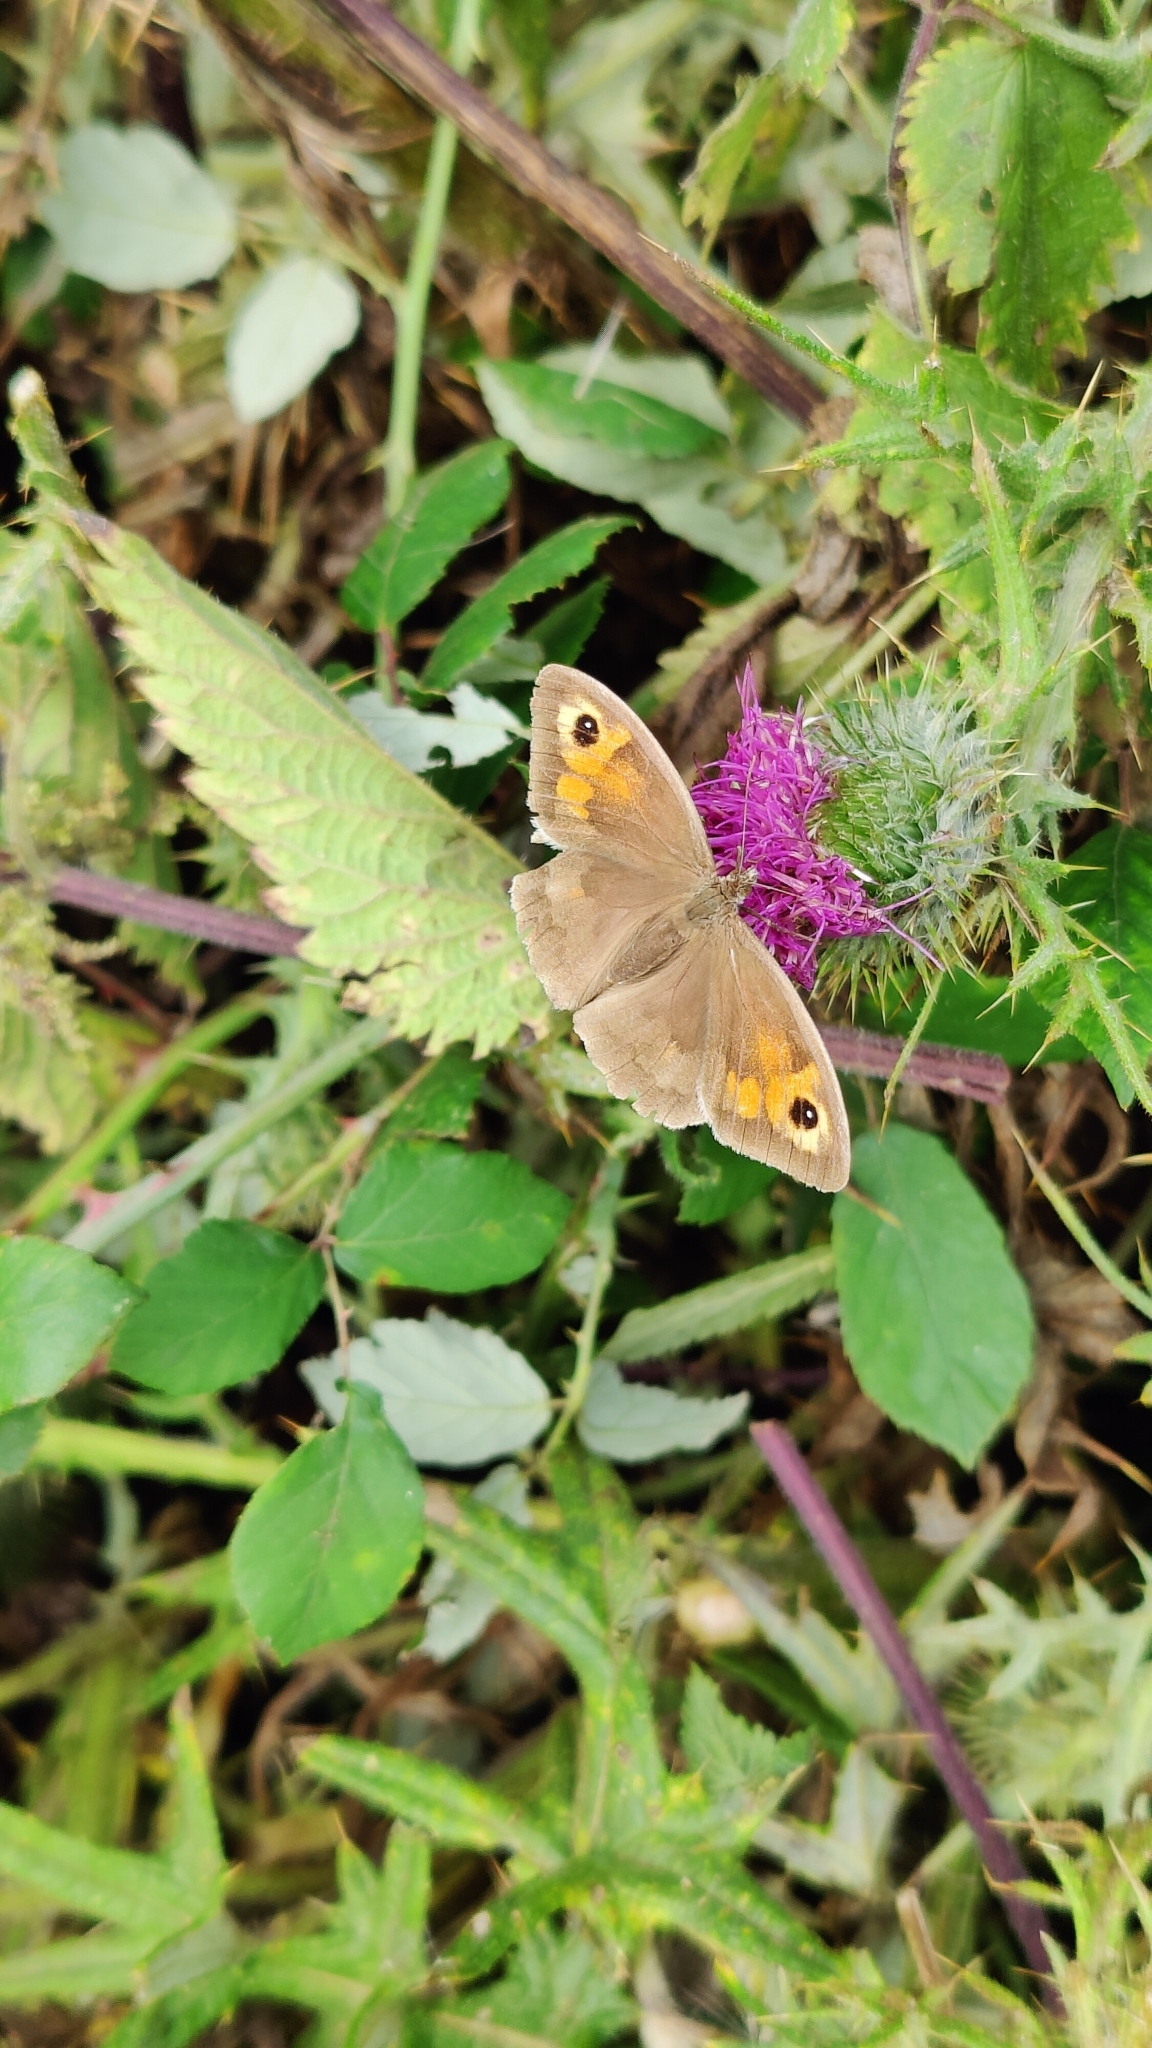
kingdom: Animalia
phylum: Arthropoda
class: Insecta
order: Lepidoptera
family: Nymphalidae
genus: Maniola
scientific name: Maniola jurtina
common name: Meadow brown
